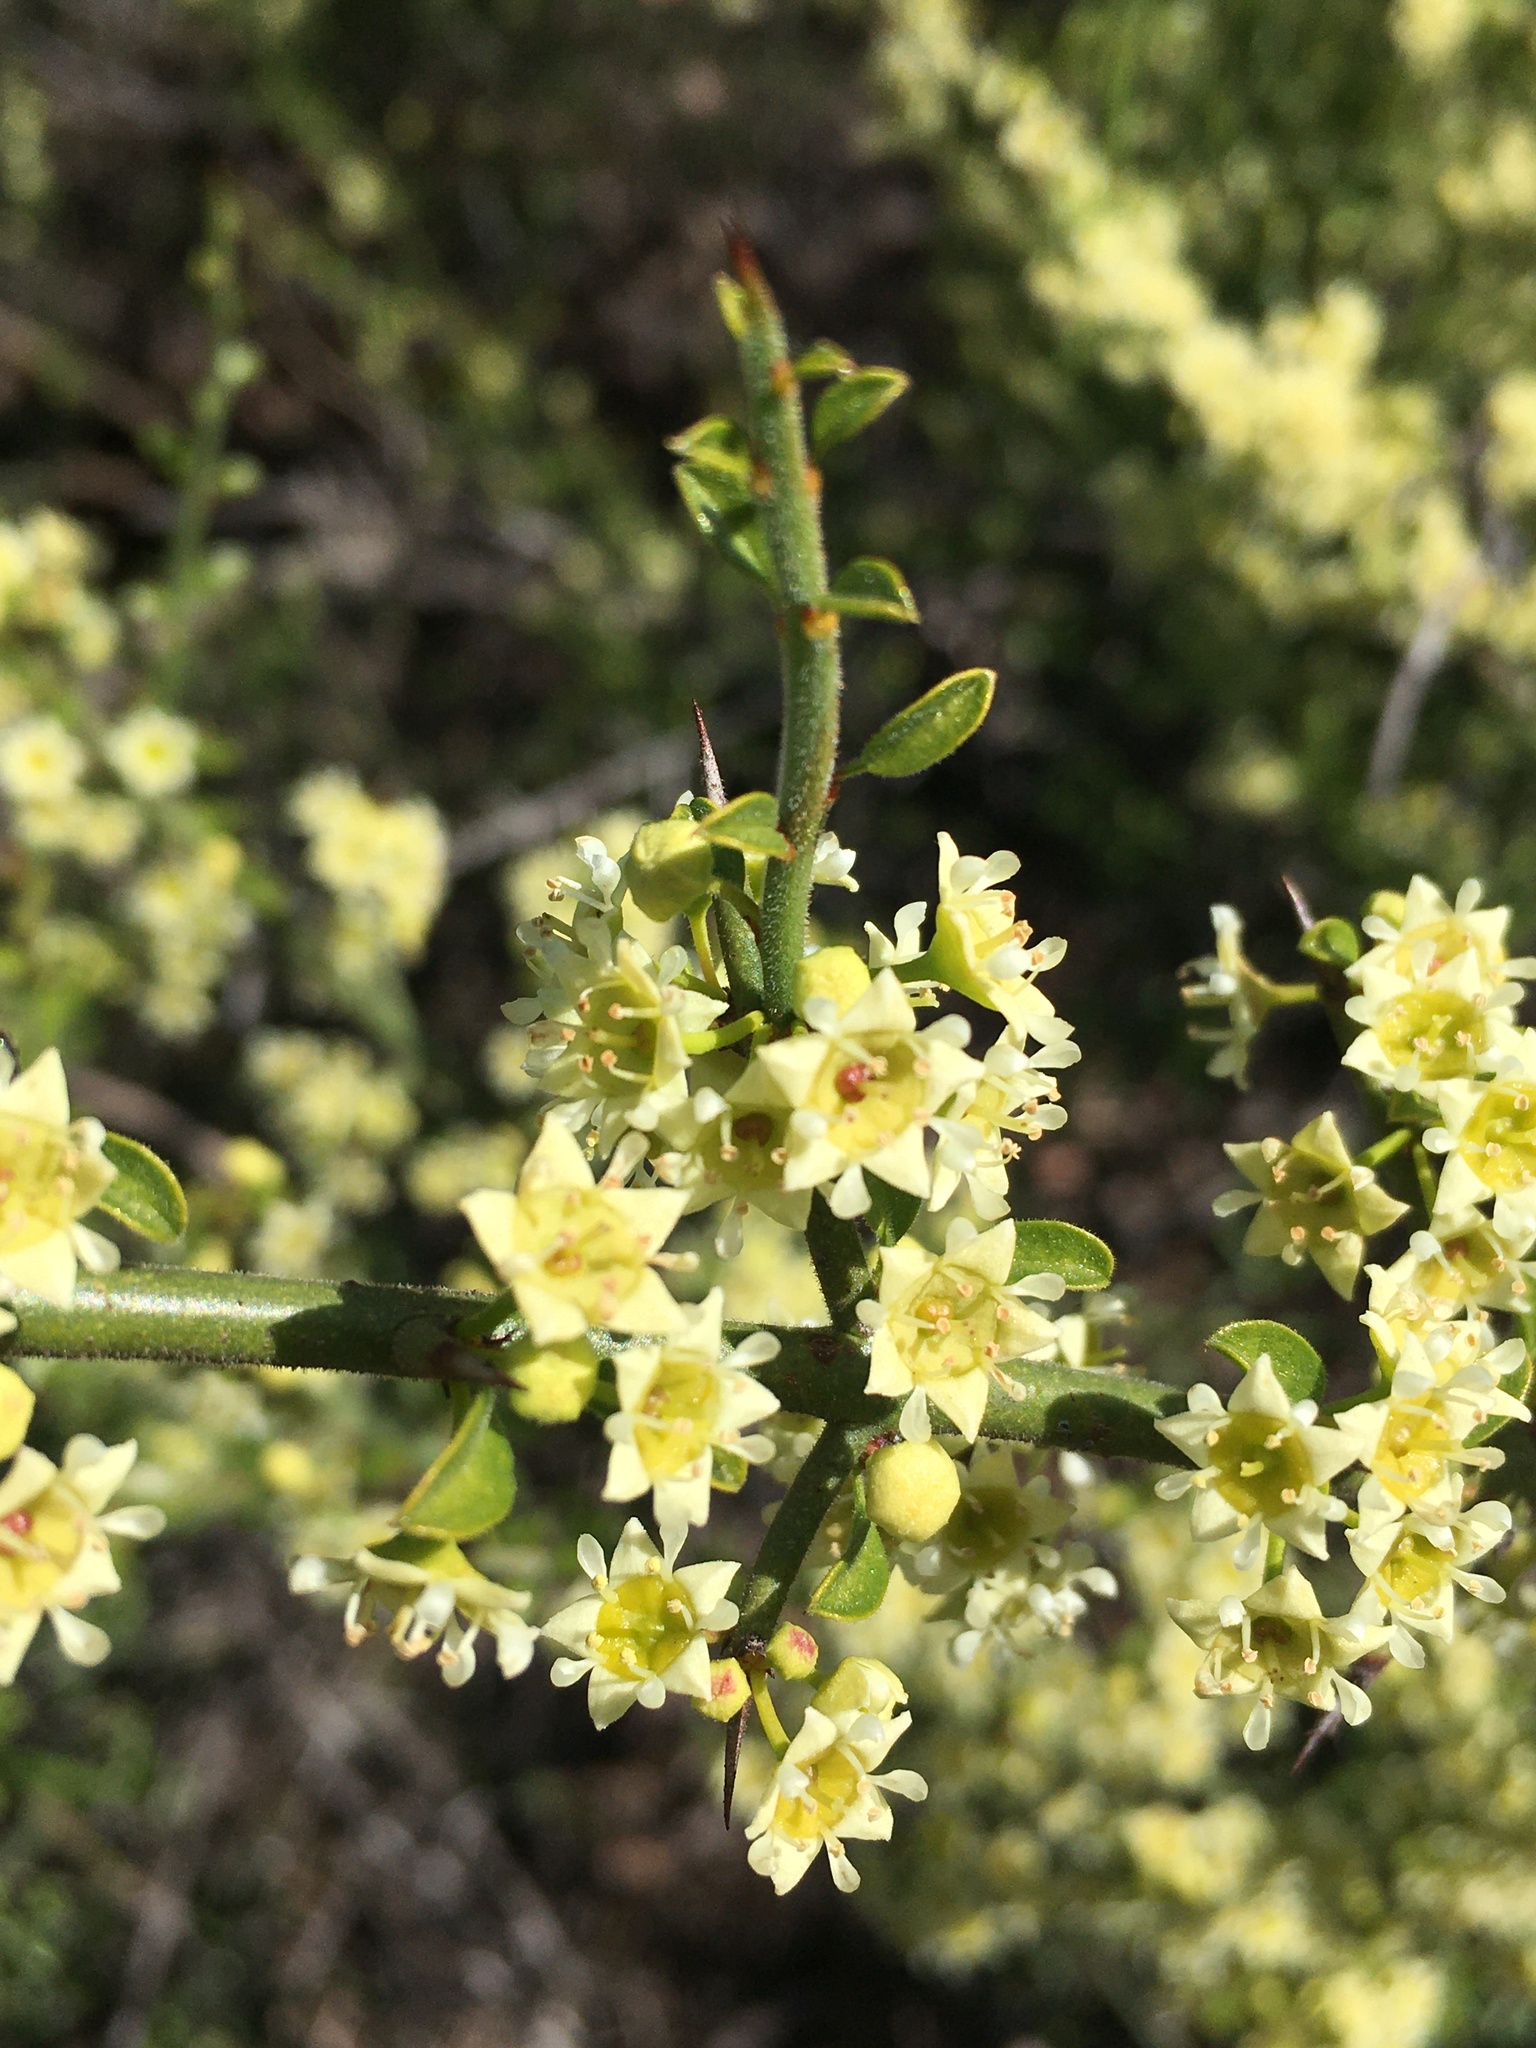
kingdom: Plantae
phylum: Tracheophyta
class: Magnoliopsida
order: Rosales
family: Rhamnaceae
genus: Adolphia
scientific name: Adolphia californica
